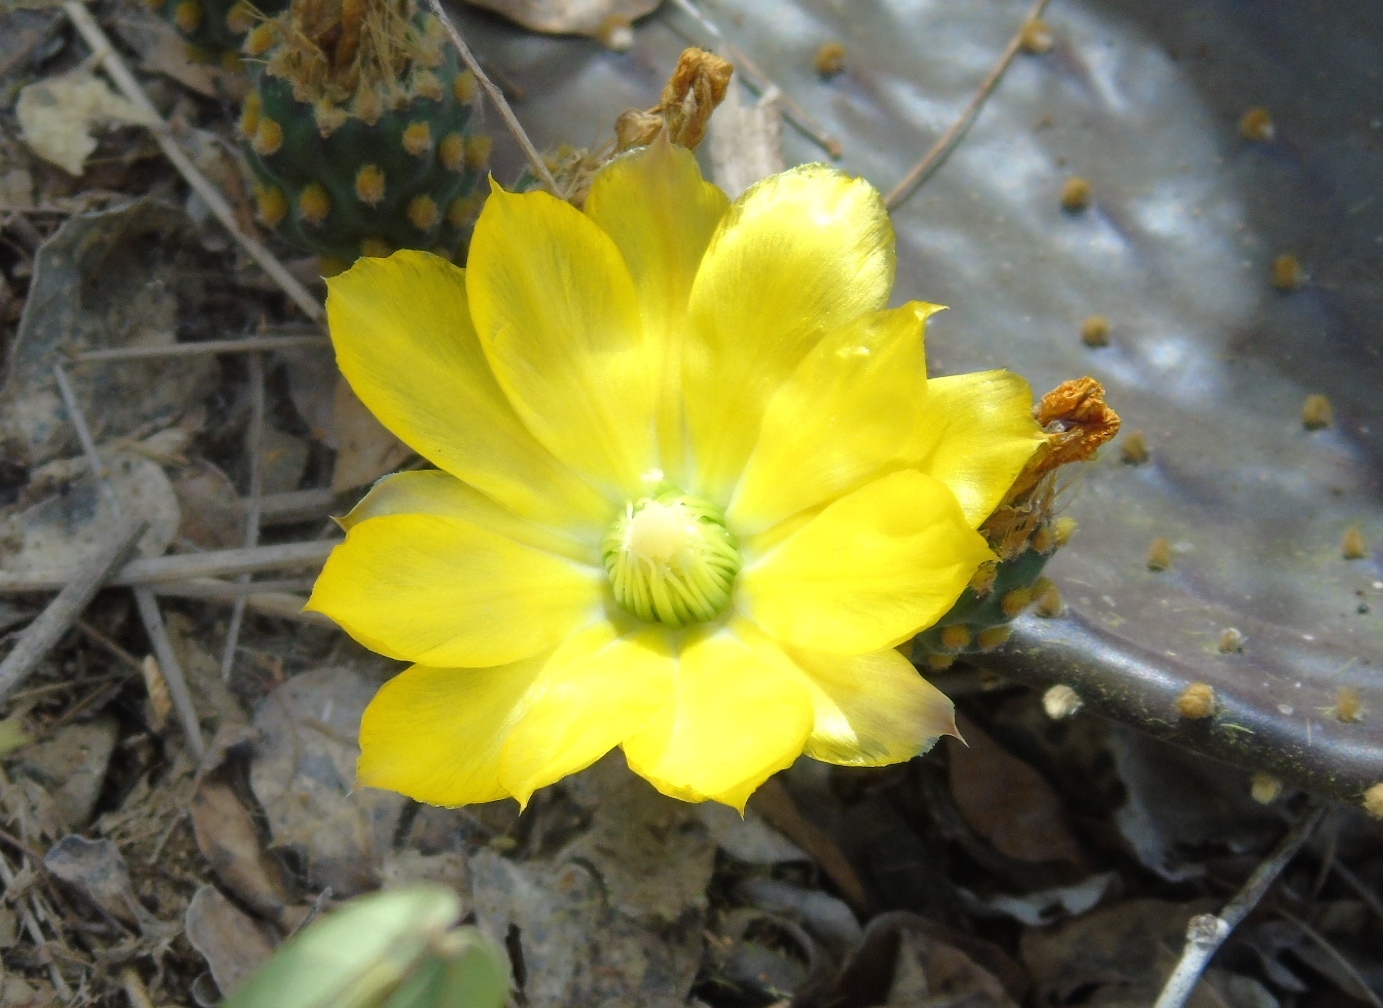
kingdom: Plantae
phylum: Tracheophyta
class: Magnoliopsida
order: Caryophyllales
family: Cactaceae
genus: Opuntia
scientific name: Opuntia decumbens
